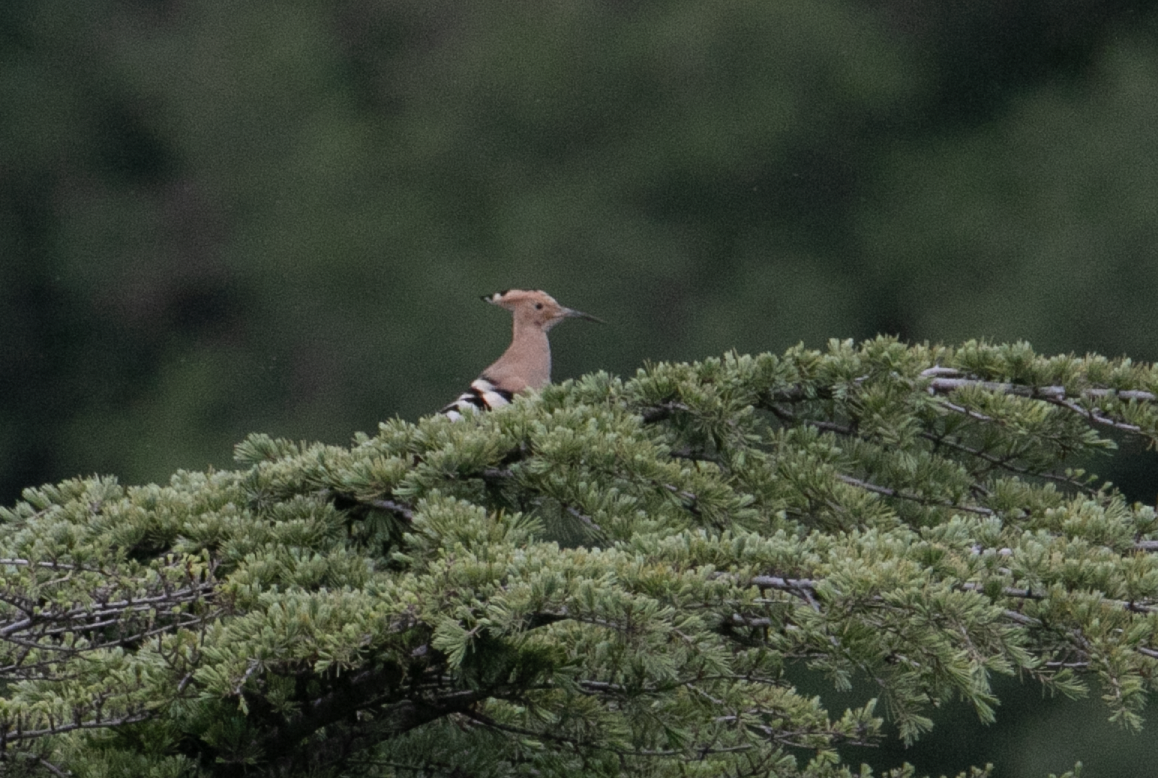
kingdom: Animalia
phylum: Chordata
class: Aves
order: Bucerotiformes
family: Upupidae
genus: Upupa
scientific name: Upupa epops
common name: Eurasian hoopoe
